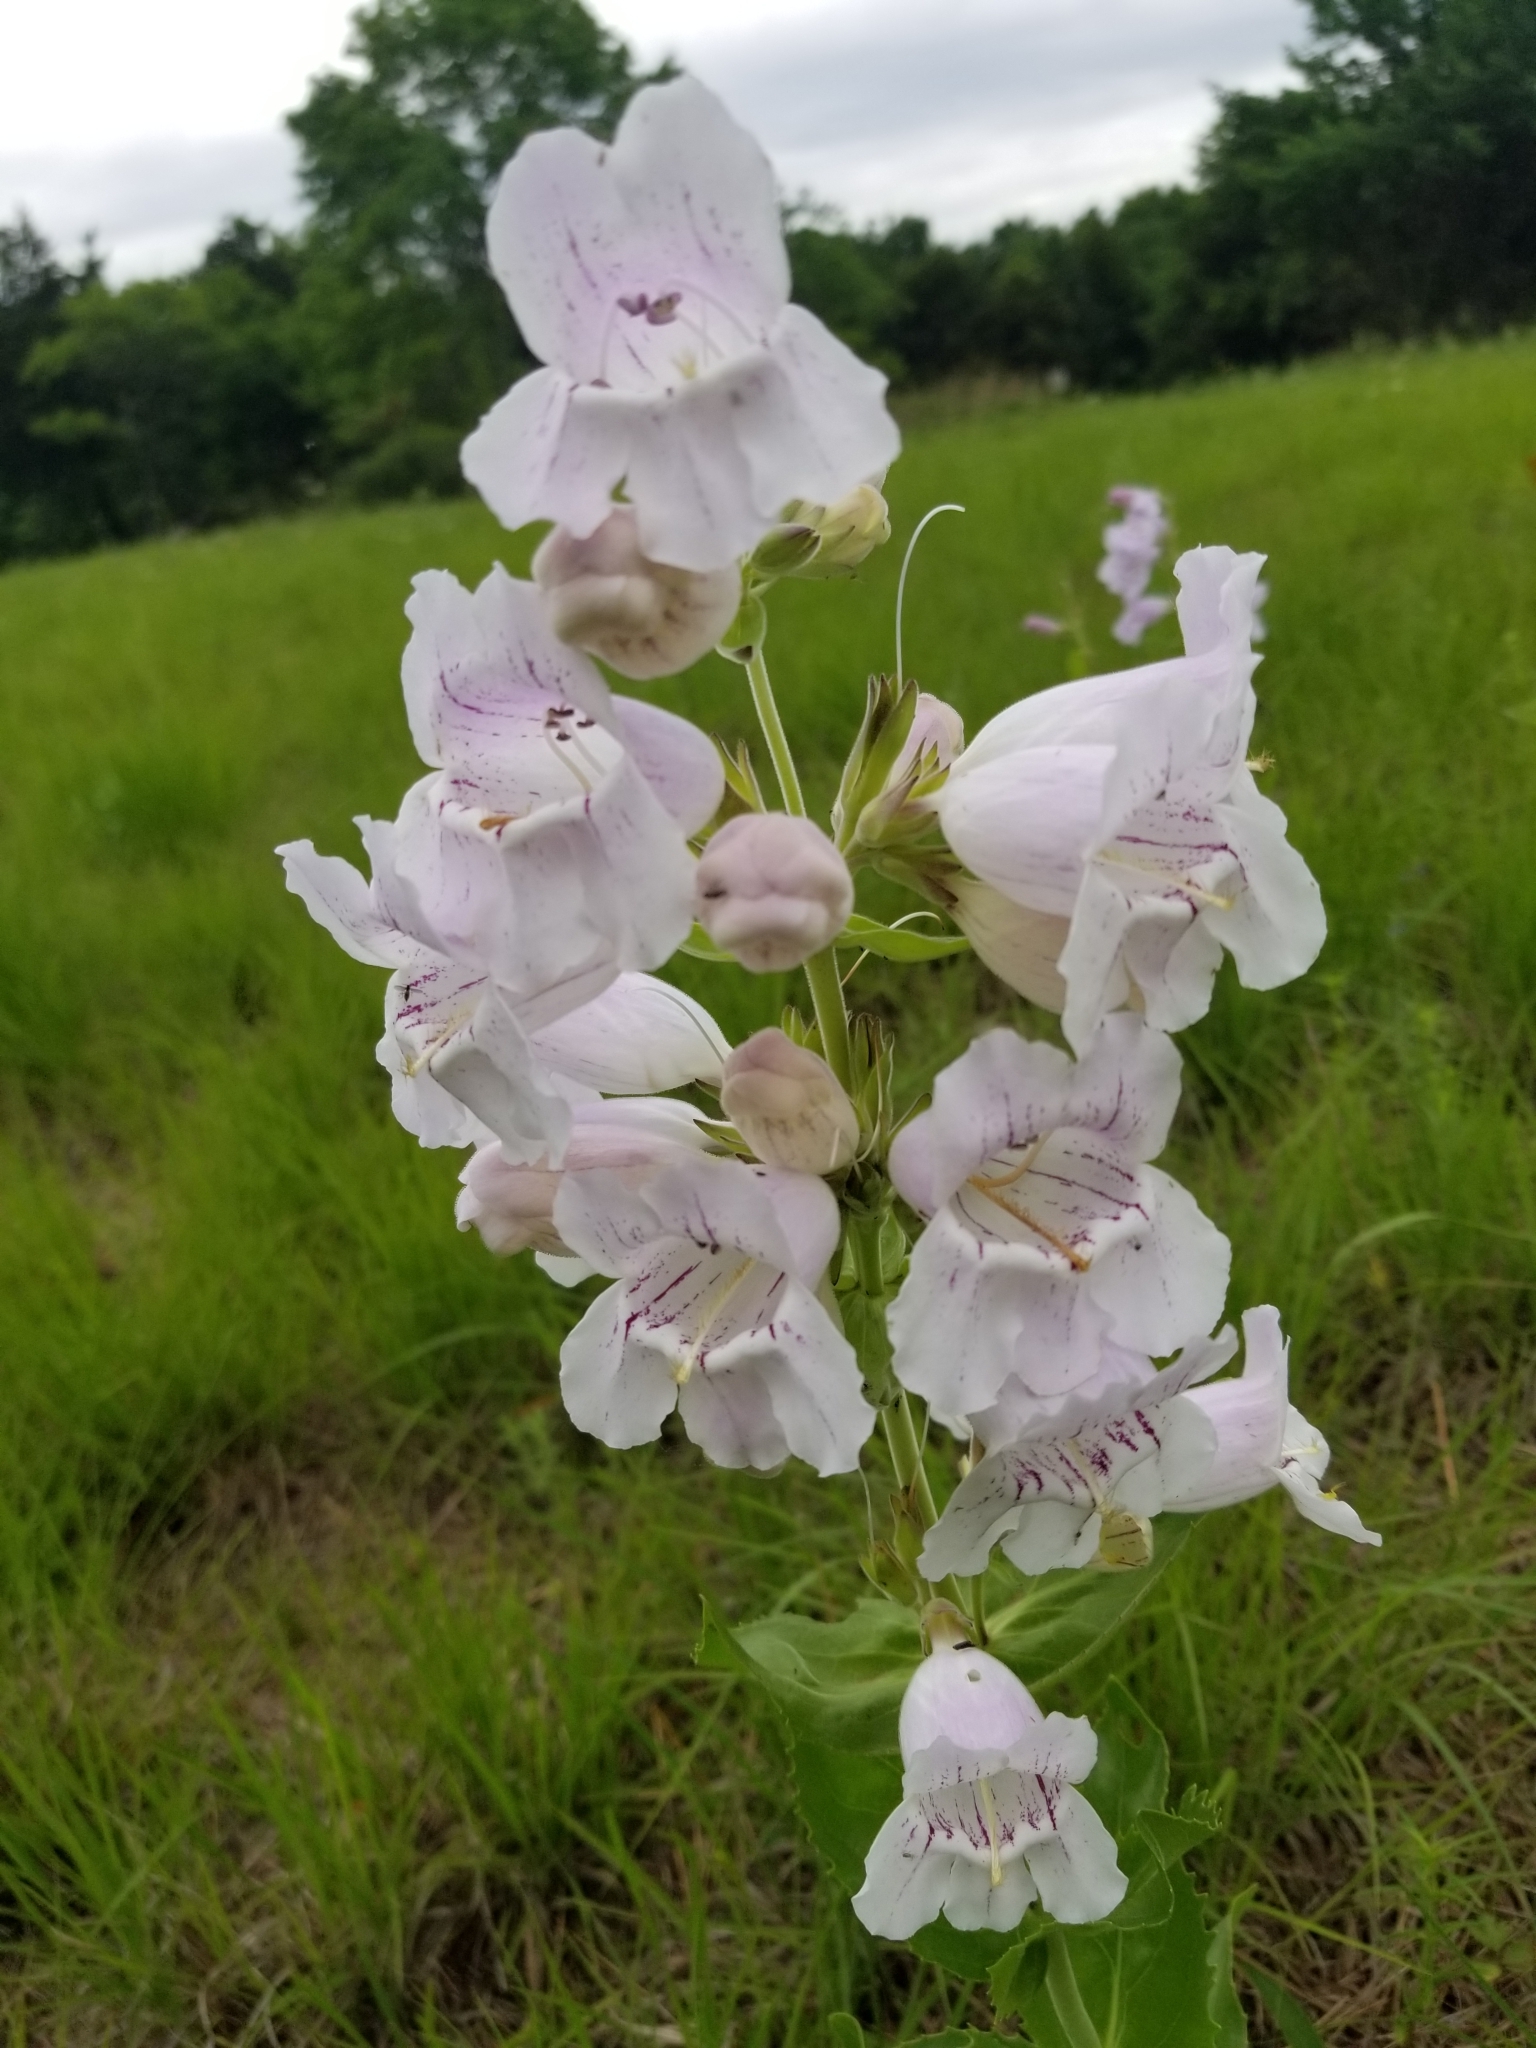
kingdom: Plantae
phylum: Tracheophyta
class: Magnoliopsida
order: Lamiales
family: Plantaginaceae
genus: Penstemon
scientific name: Penstemon cobaea
